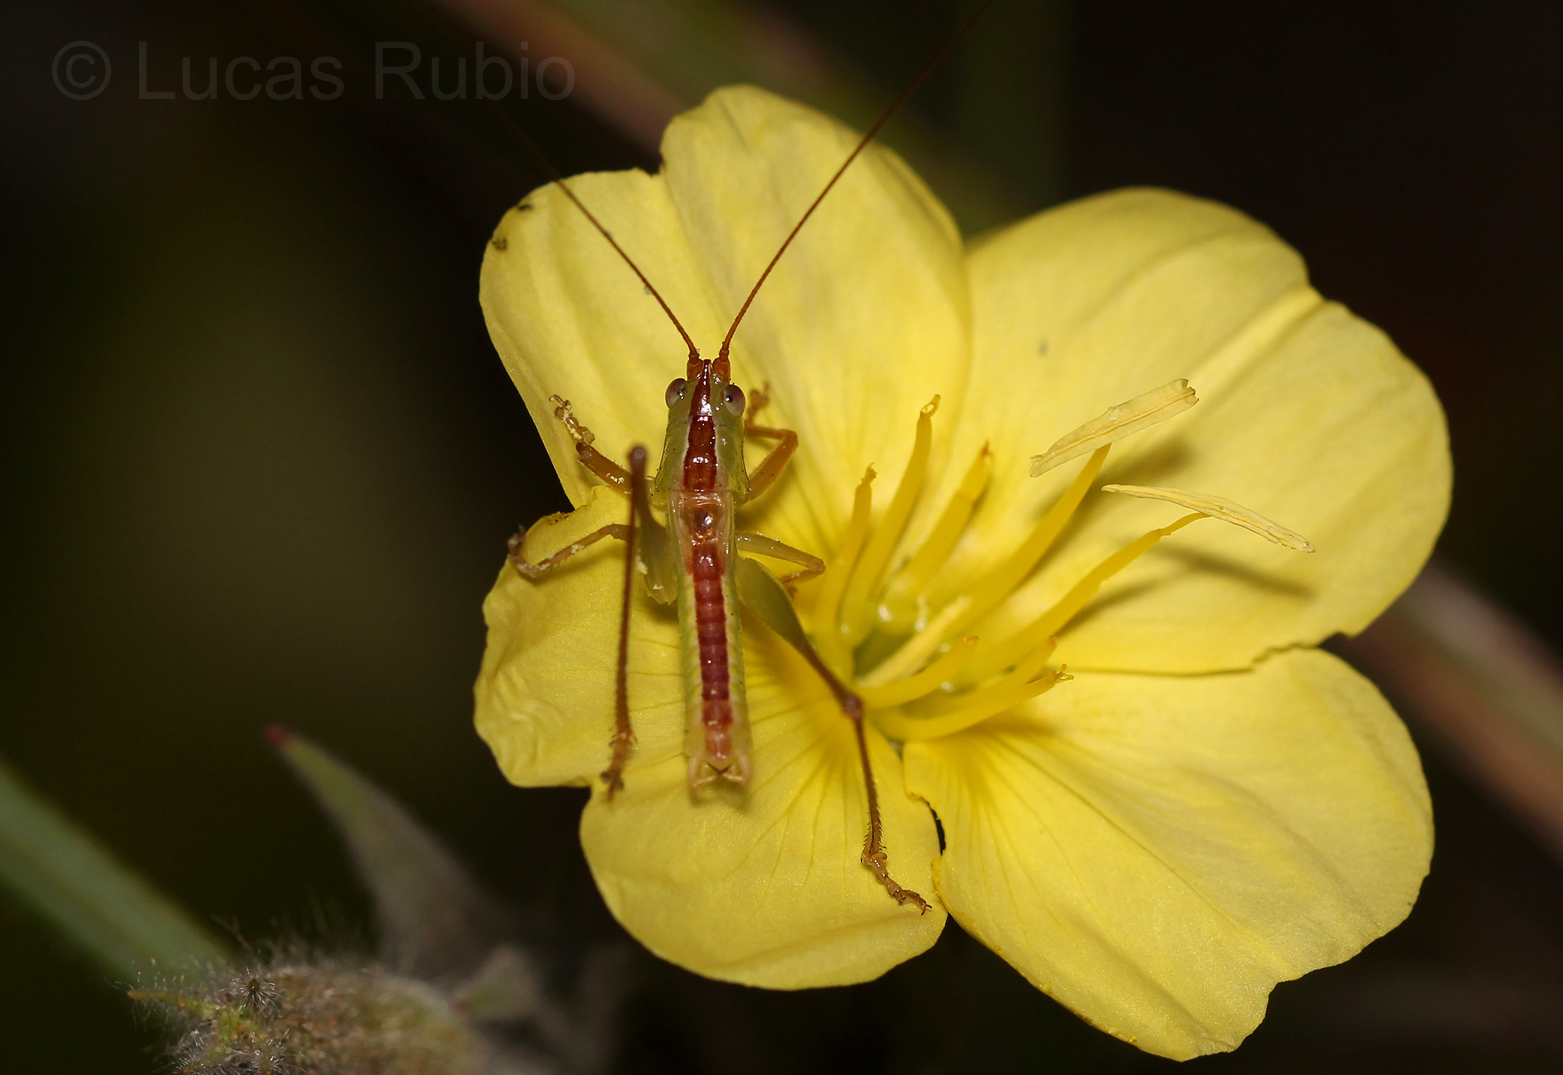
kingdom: Animalia
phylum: Arthropoda
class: Insecta
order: Orthoptera
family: Tettigoniidae
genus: Conocephalus
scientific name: Conocephalus
